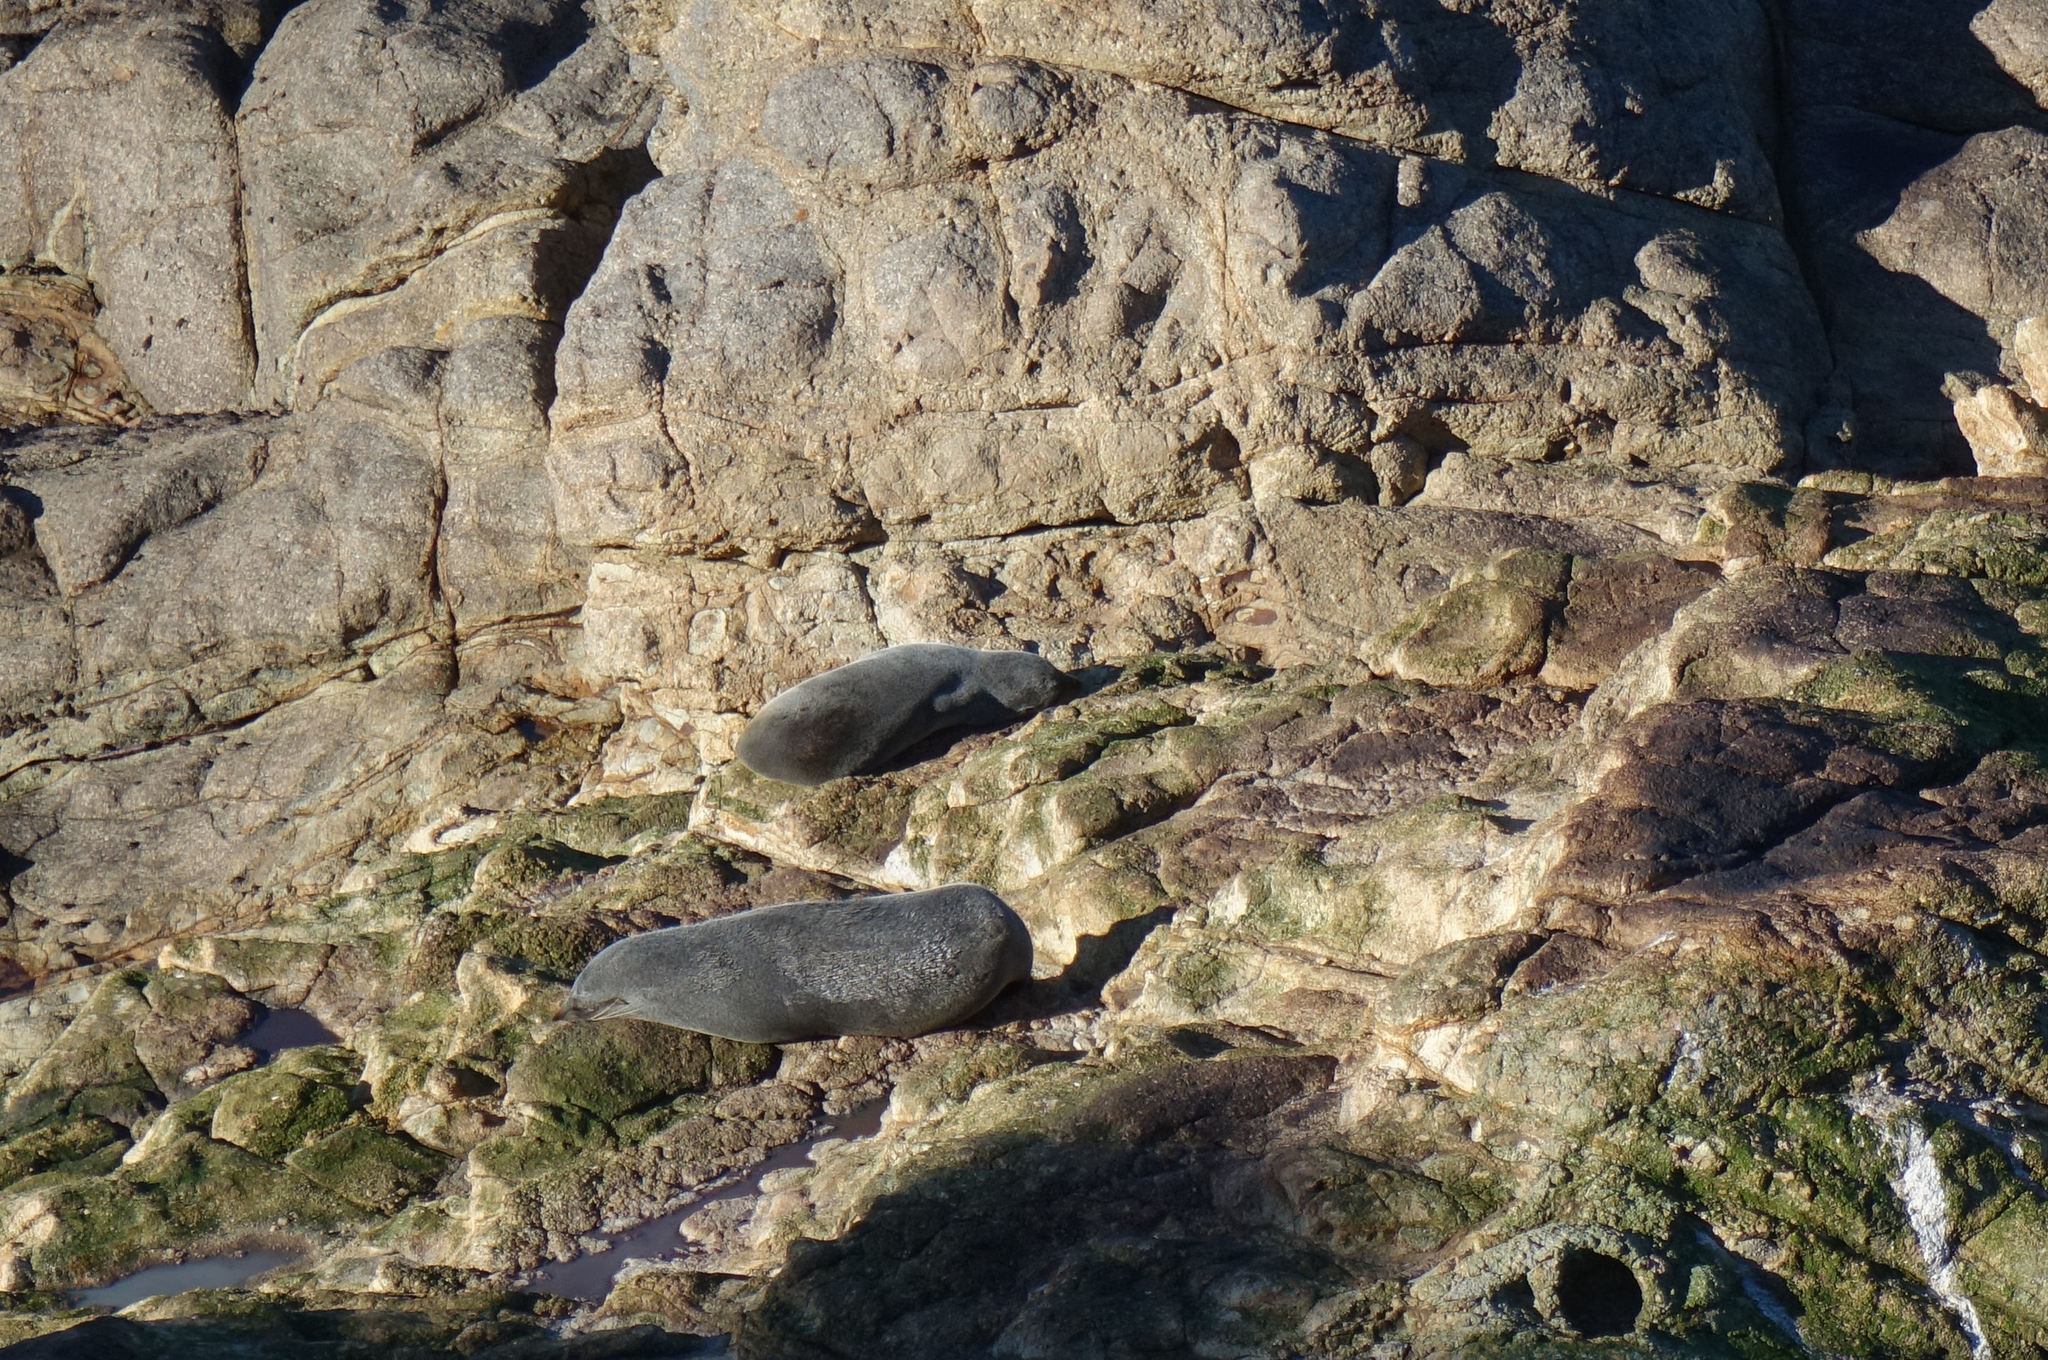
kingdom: Animalia
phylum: Chordata
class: Mammalia
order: Carnivora
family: Otariidae
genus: Arctocephalus
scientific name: Arctocephalus forsteri
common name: New zealand fur seal
